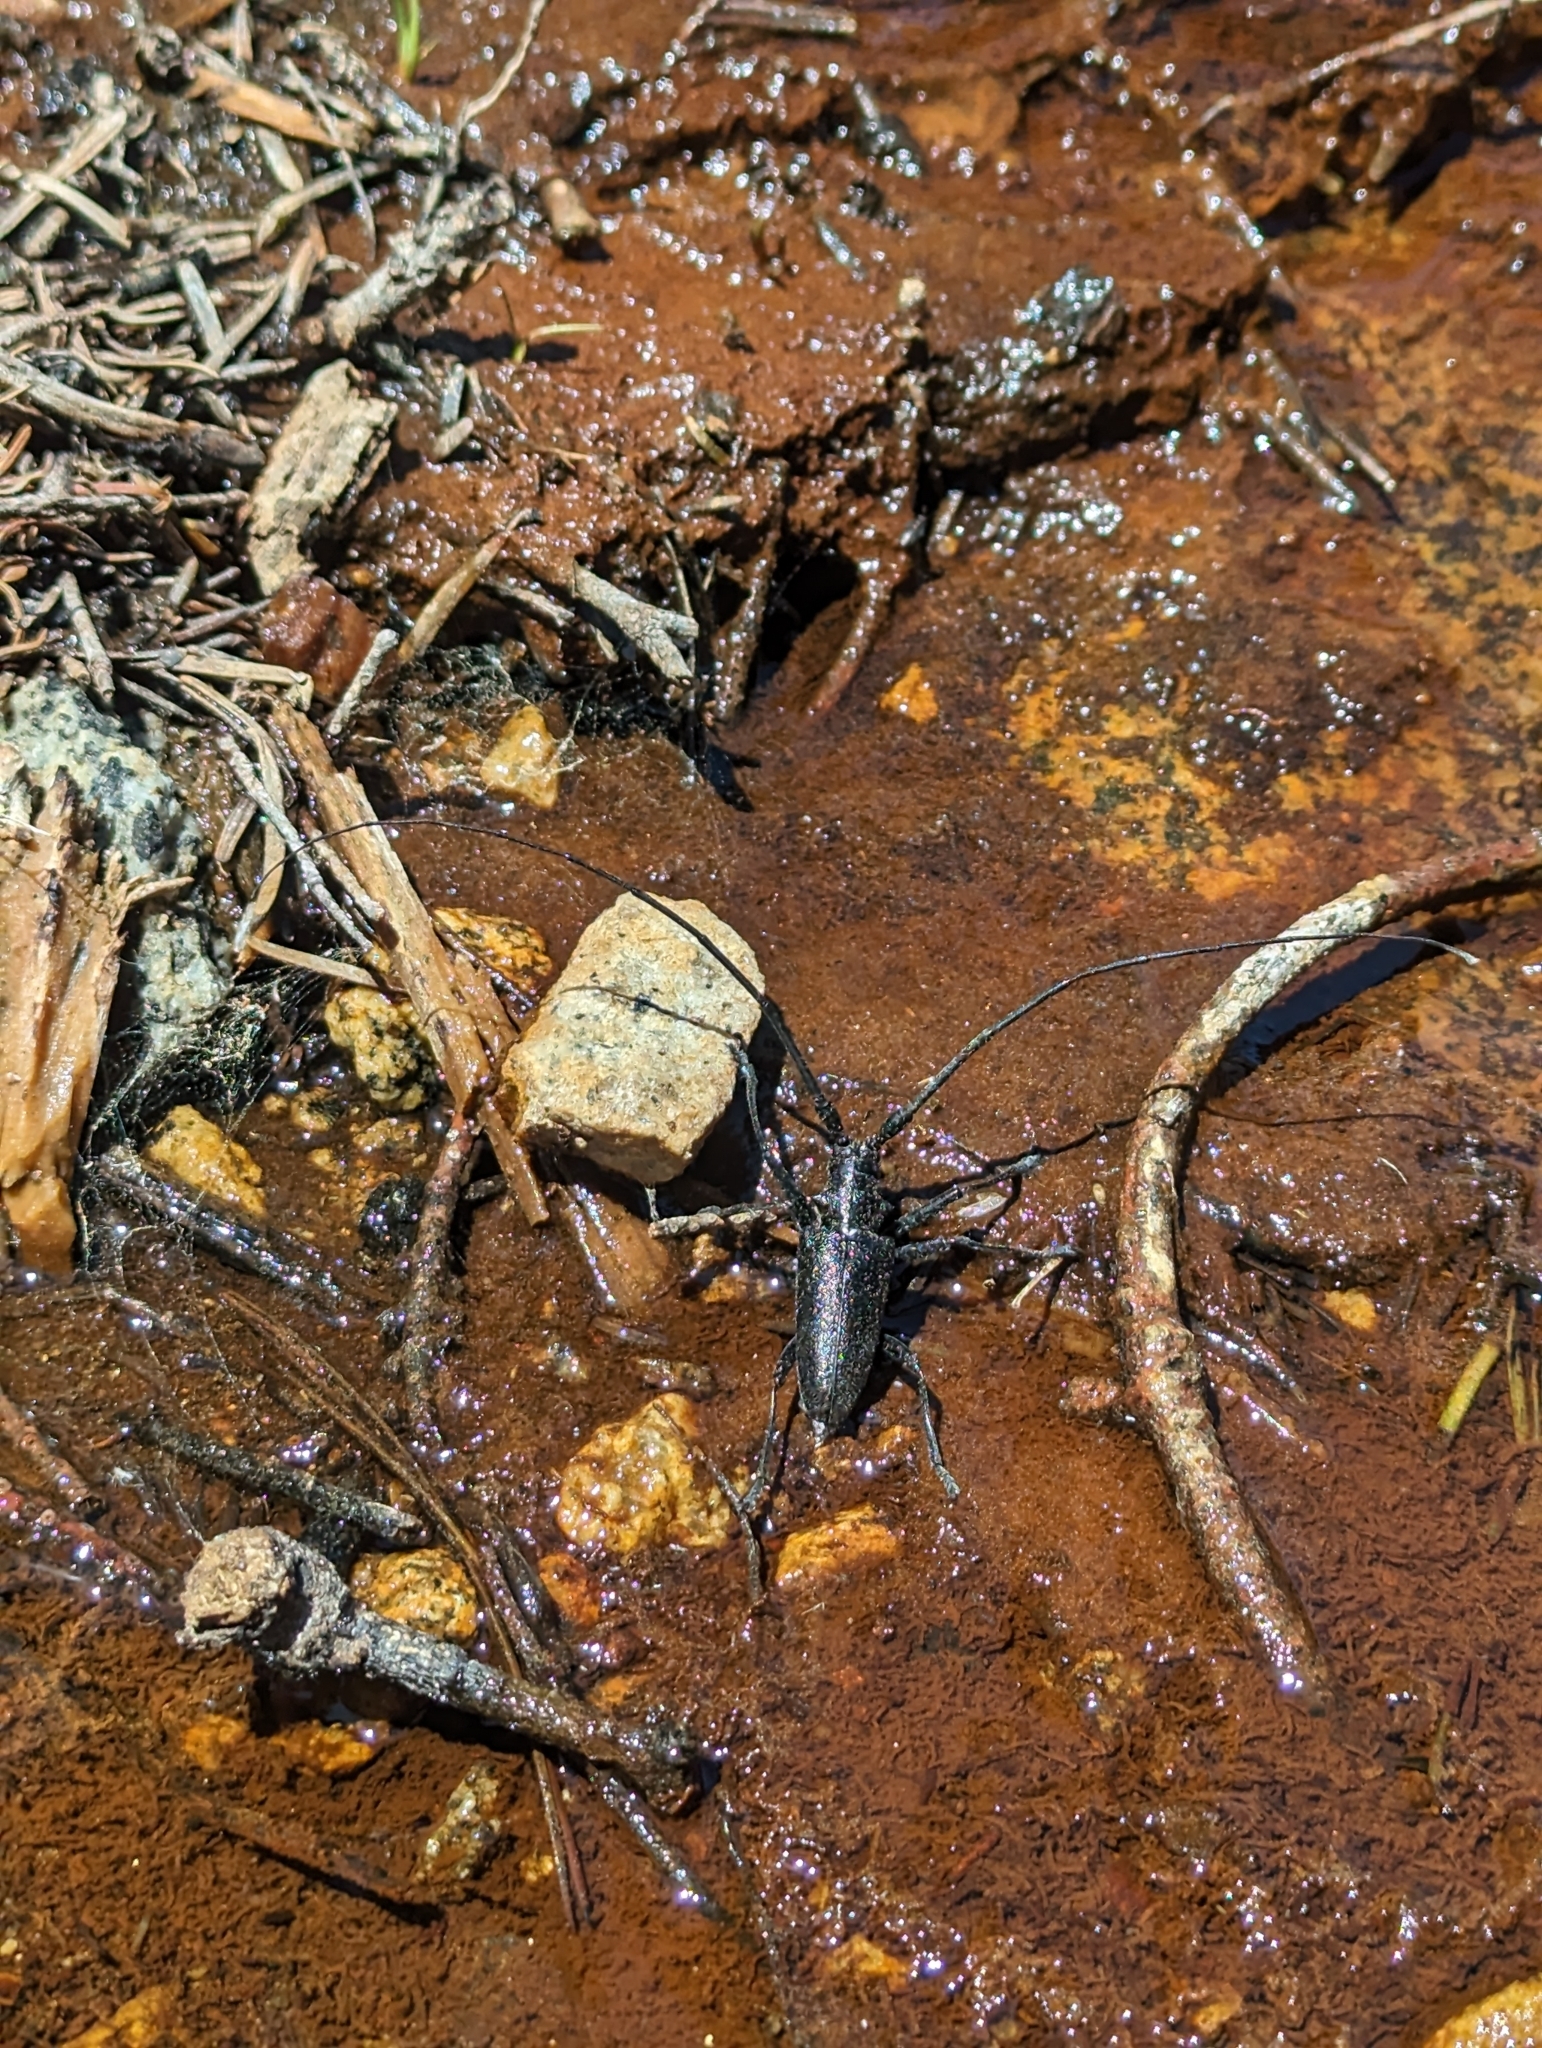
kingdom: Animalia
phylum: Arthropoda
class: Insecta
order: Coleoptera
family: Cerambycidae
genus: Monochamus
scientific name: Monochamus scutellatus
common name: White-spotted sawyer beetle
